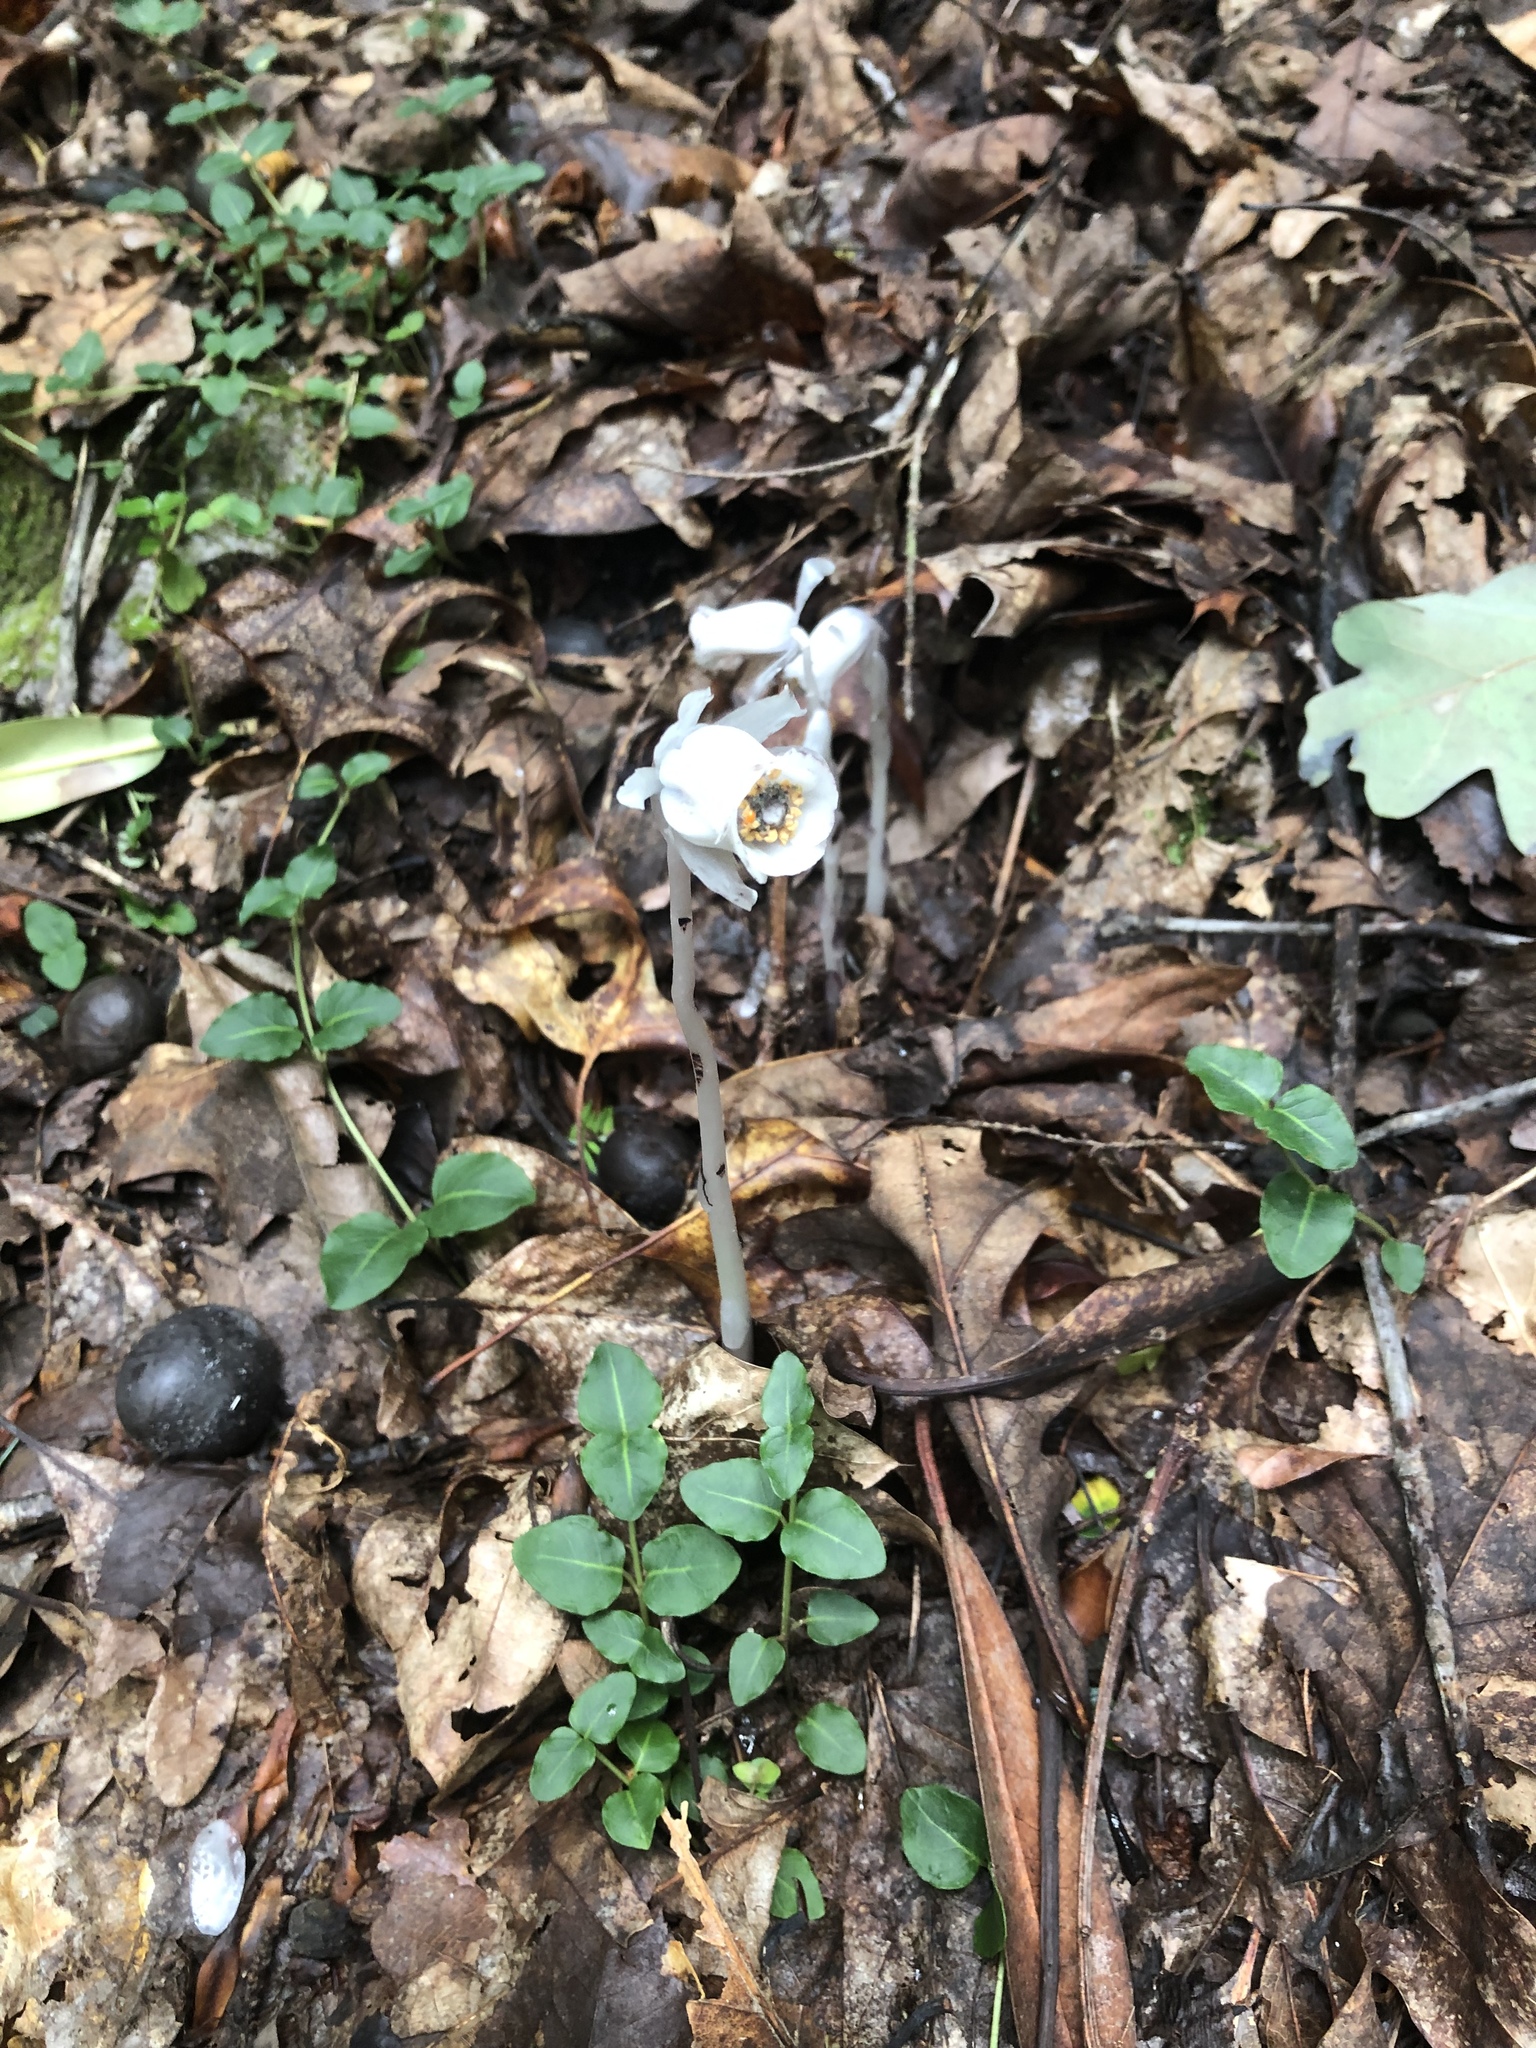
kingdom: Plantae
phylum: Tracheophyta
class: Magnoliopsida
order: Ericales
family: Ericaceae
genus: Monotropa
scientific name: Monotropa uniflora
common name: Convulsion root
